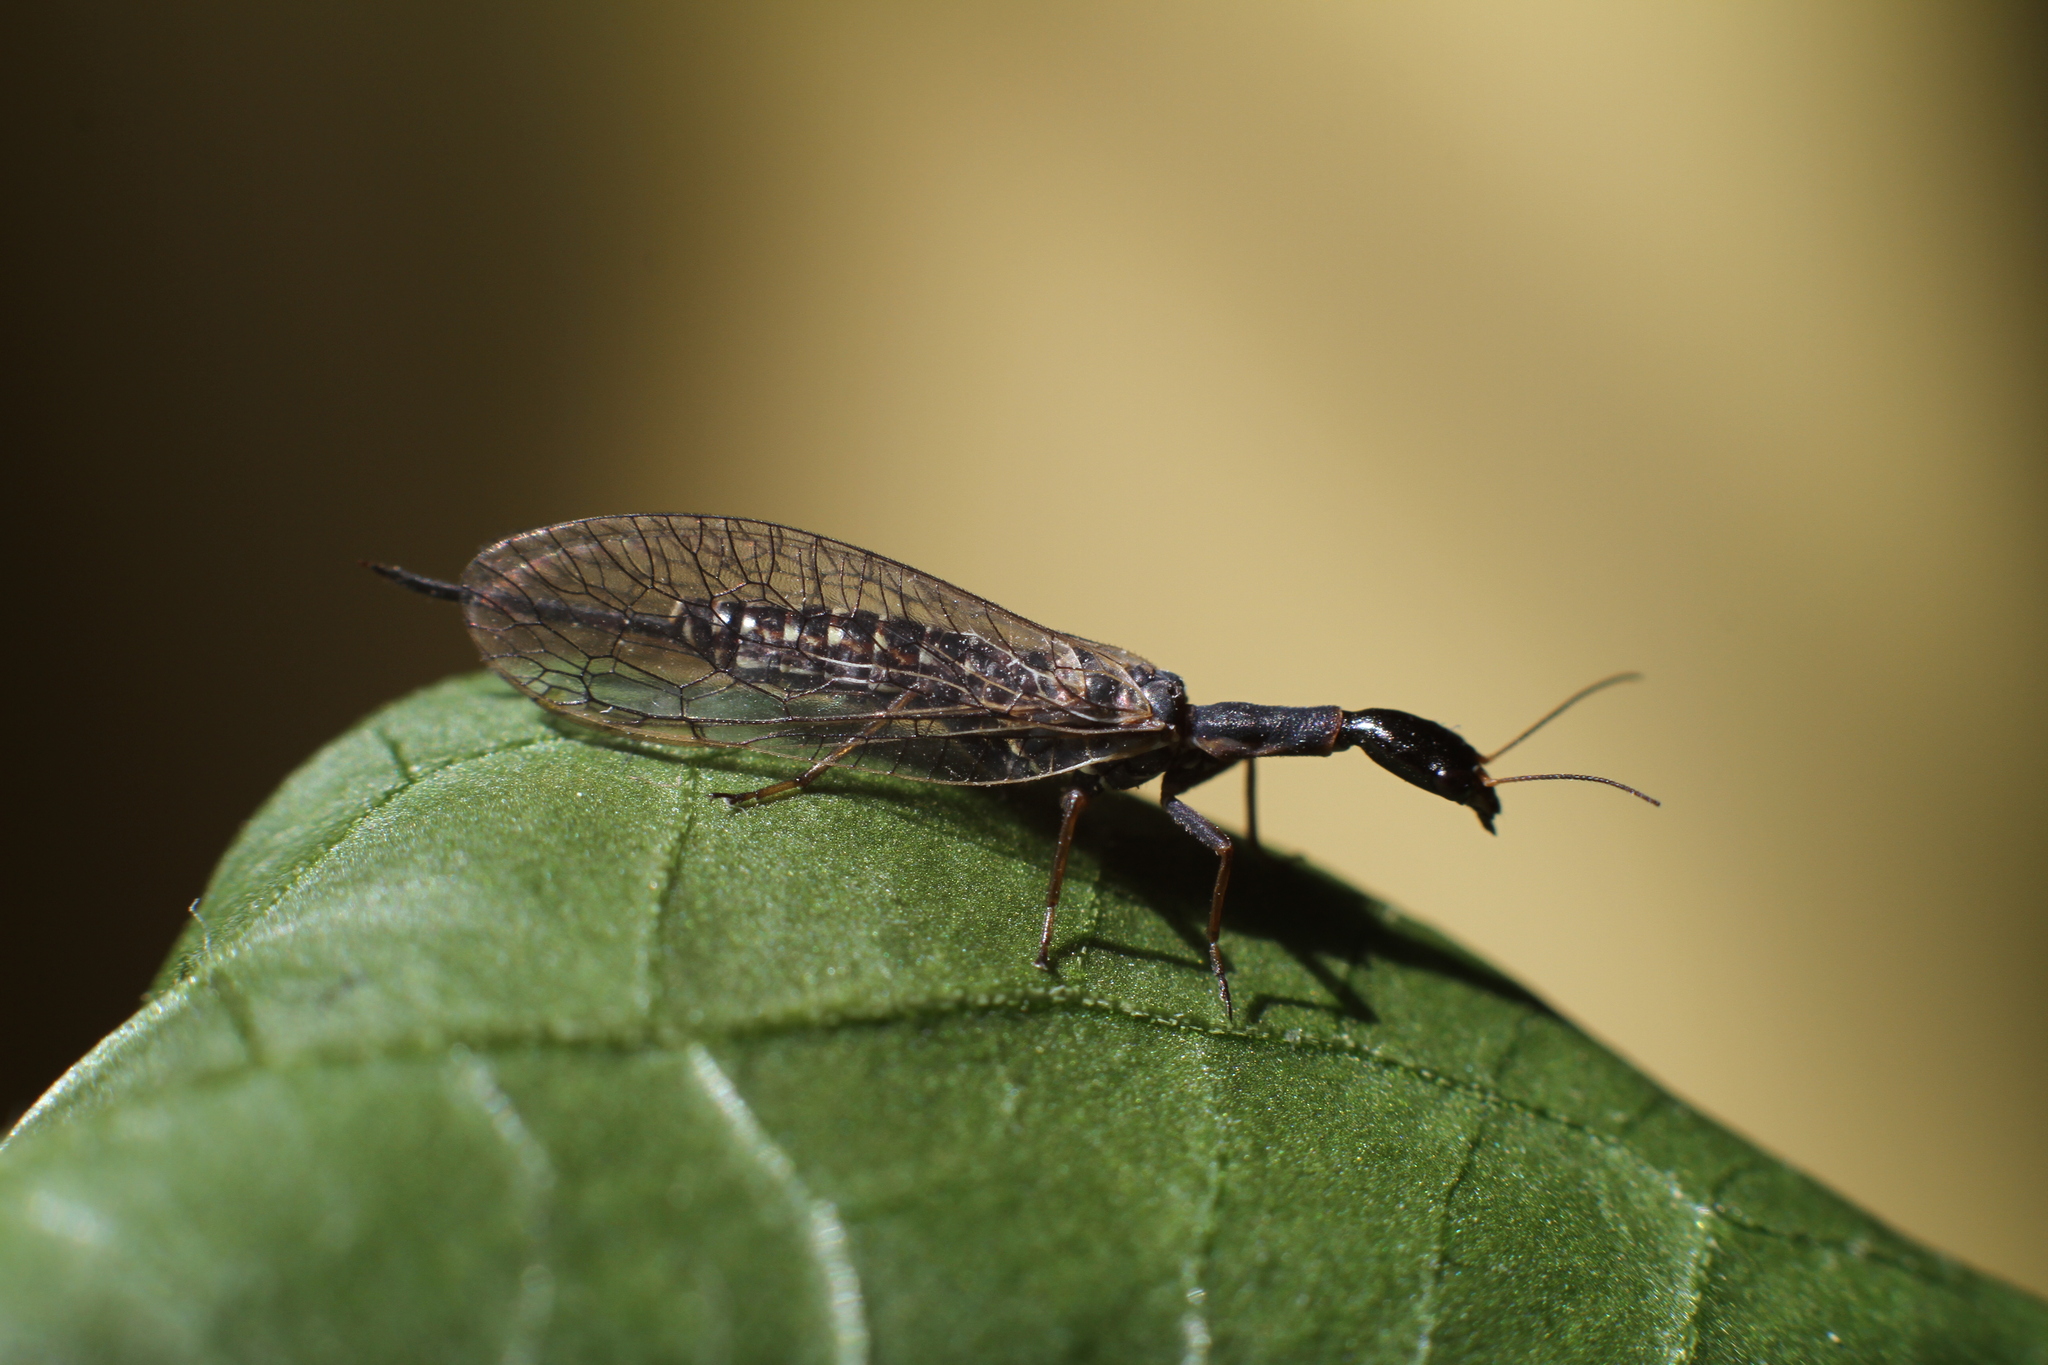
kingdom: Animalia
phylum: Arthropoda
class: Insecta
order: Raphidioptera
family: Raphidiidae
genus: Xanthostigma
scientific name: Xanthostigma xanthostigma
